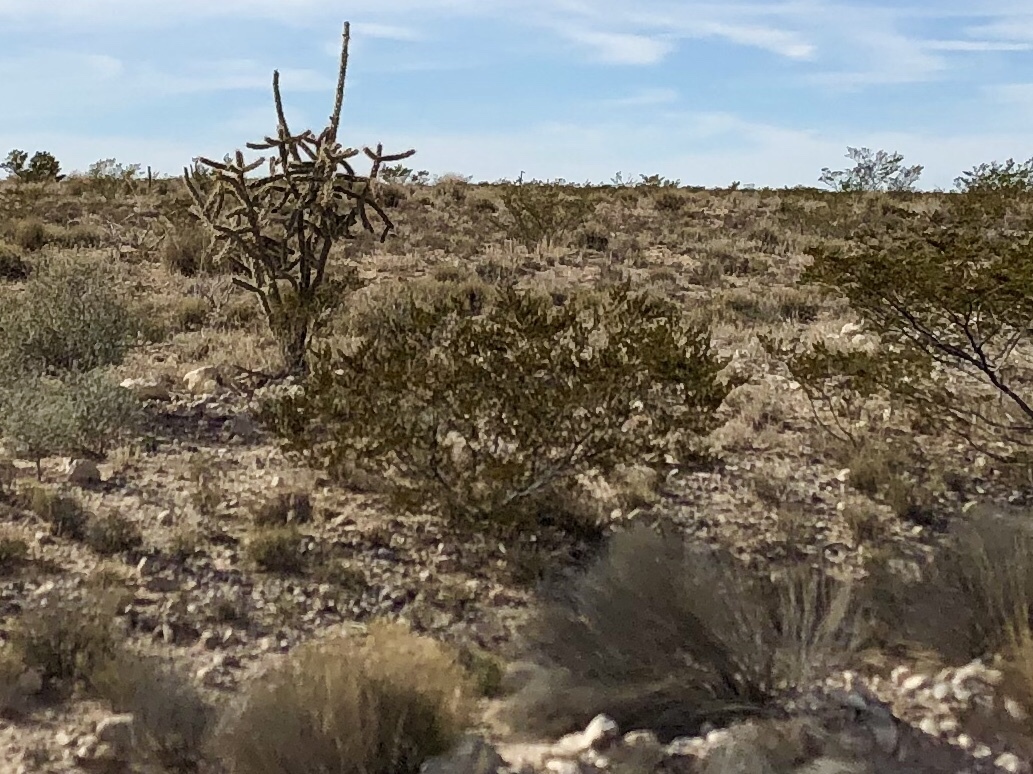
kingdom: Plantae
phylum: Tracheophyta
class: Magnoliopsida
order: Zygophyllales
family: Zygophyllaceae
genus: Larrea
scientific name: Larrea tridentata
